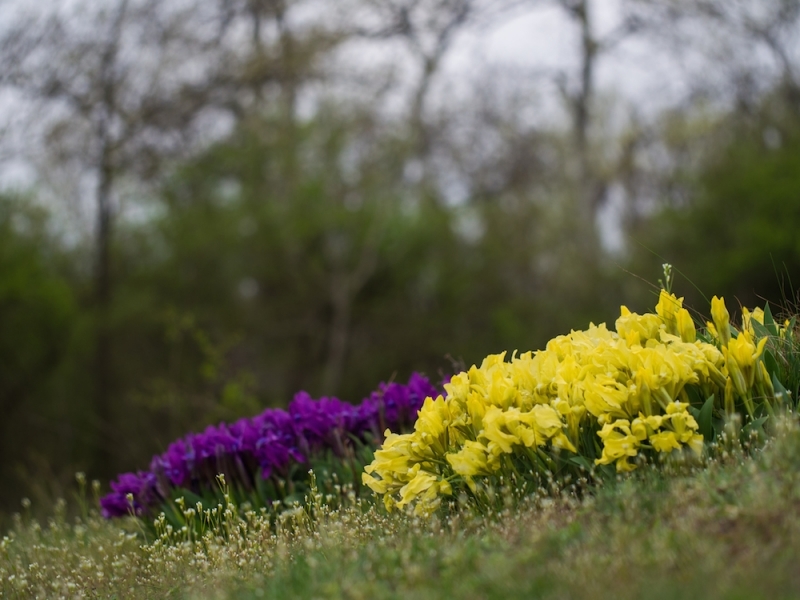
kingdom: Plantae
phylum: Tracheophyta
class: Liliopsida
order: Asparagales
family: Iridaceae
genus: Iris
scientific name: Iris pumila
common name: Dwarf iris
